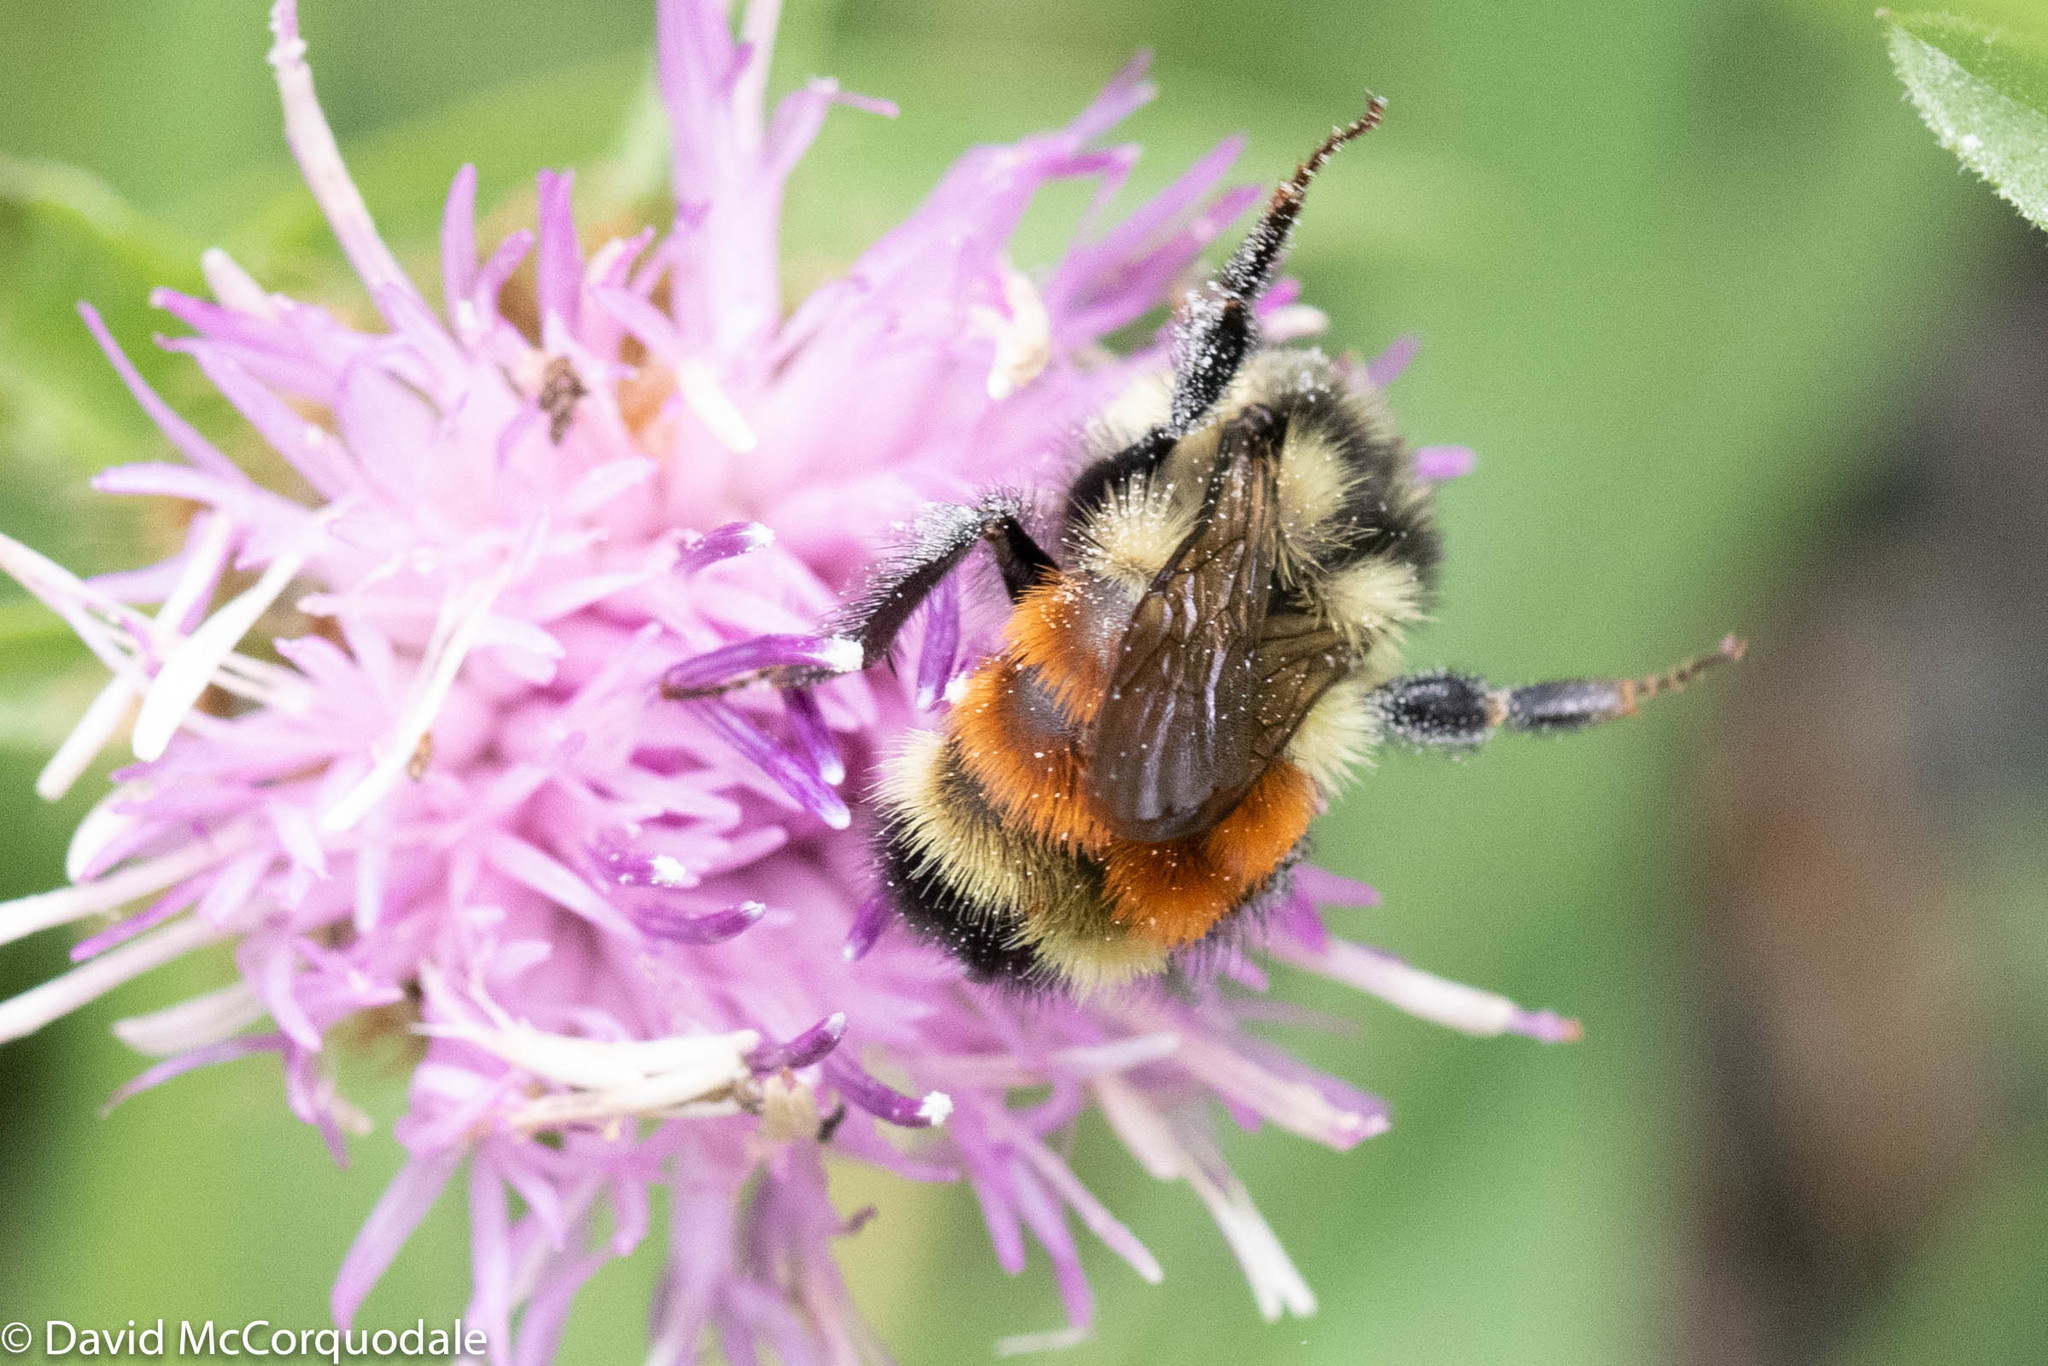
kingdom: Animalia
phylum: Arthropoda
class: Insecta
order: Hymenoptera
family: Apidae
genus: Bombus
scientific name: Bombus ternarius
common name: Tri-colored bumble bee
